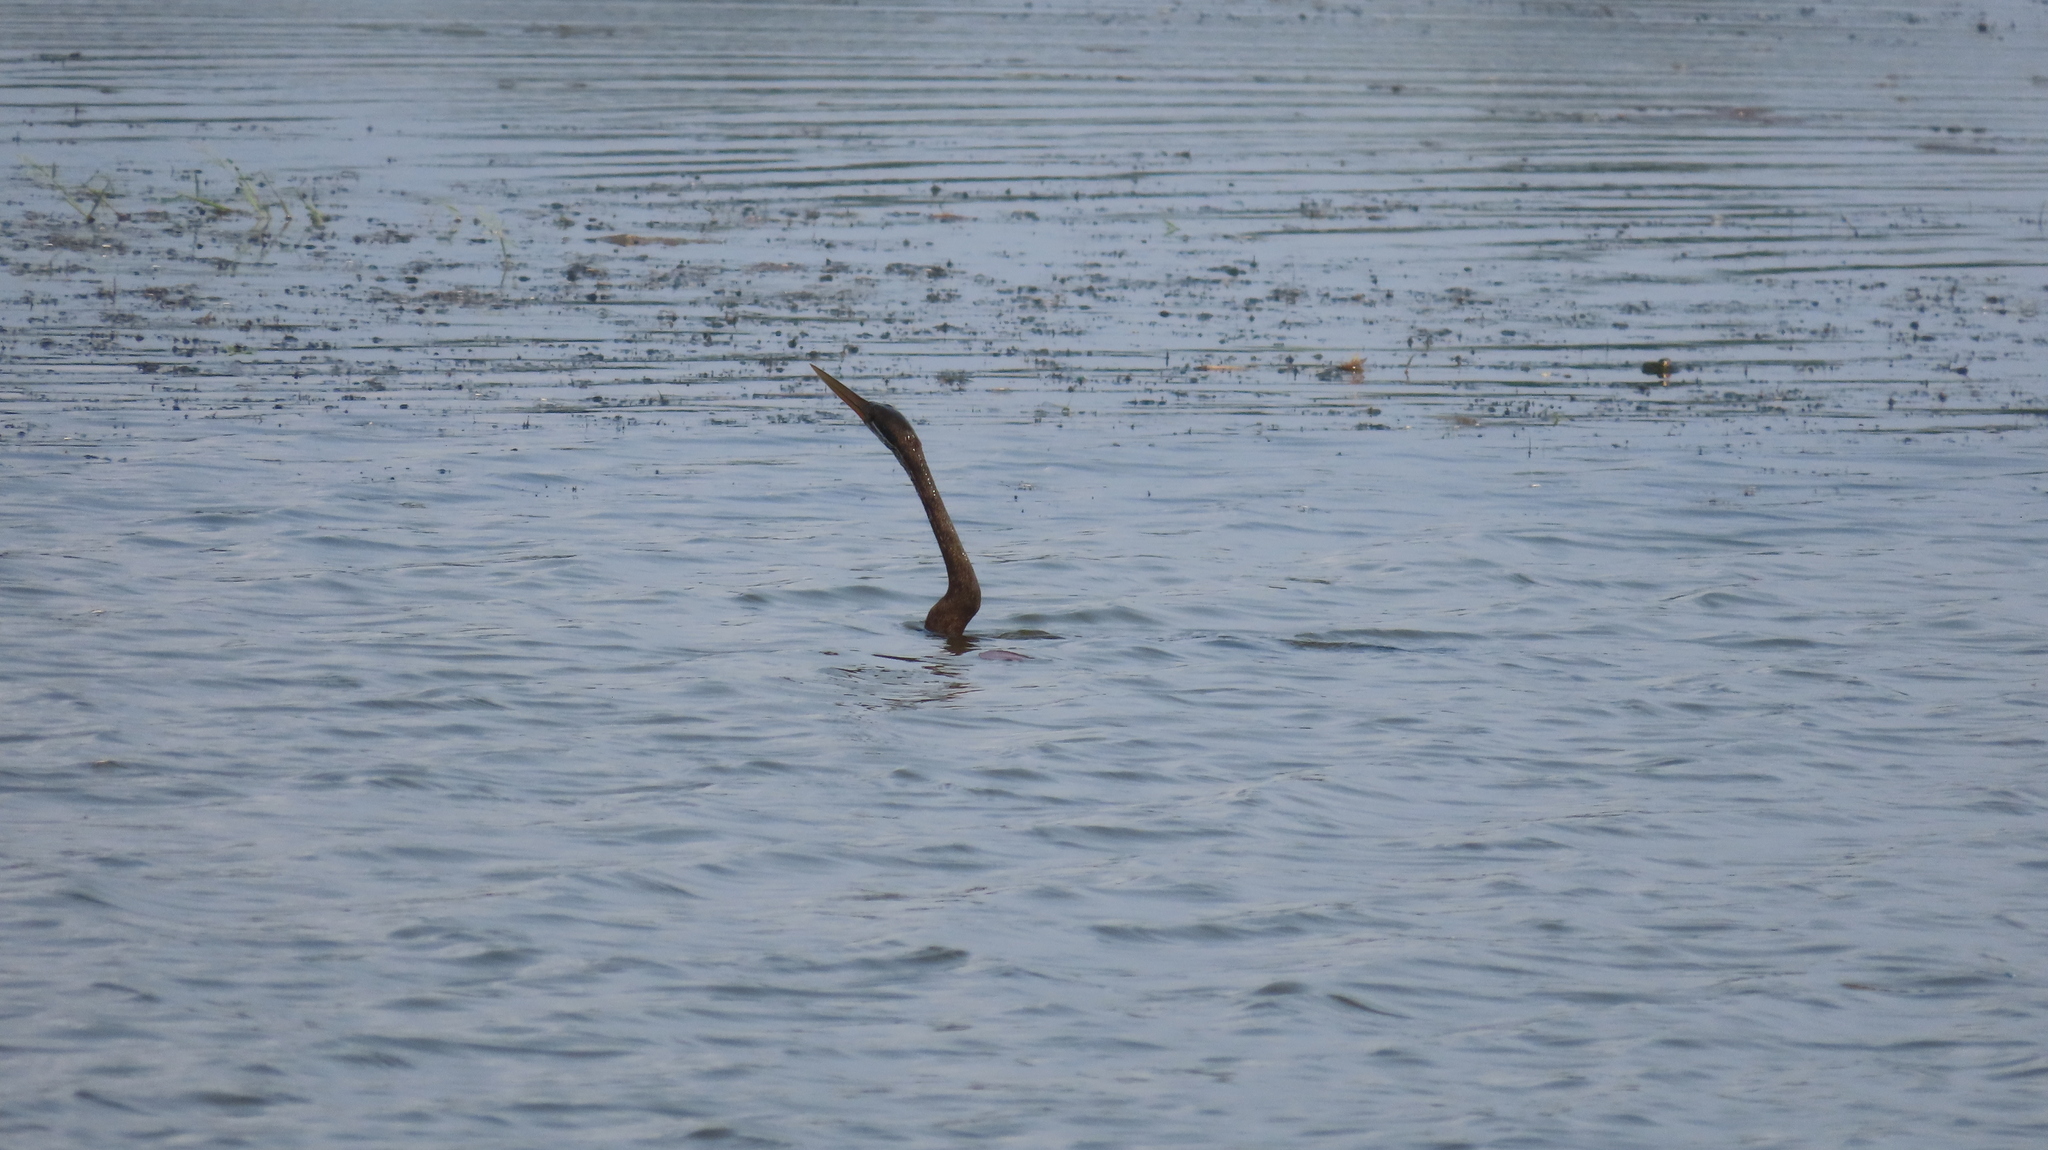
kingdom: Animalia
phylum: Chordata
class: Aves
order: Suliformes
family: Anhingidae
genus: Anhinga
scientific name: Anhinga melanogaster
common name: Oriental darter
